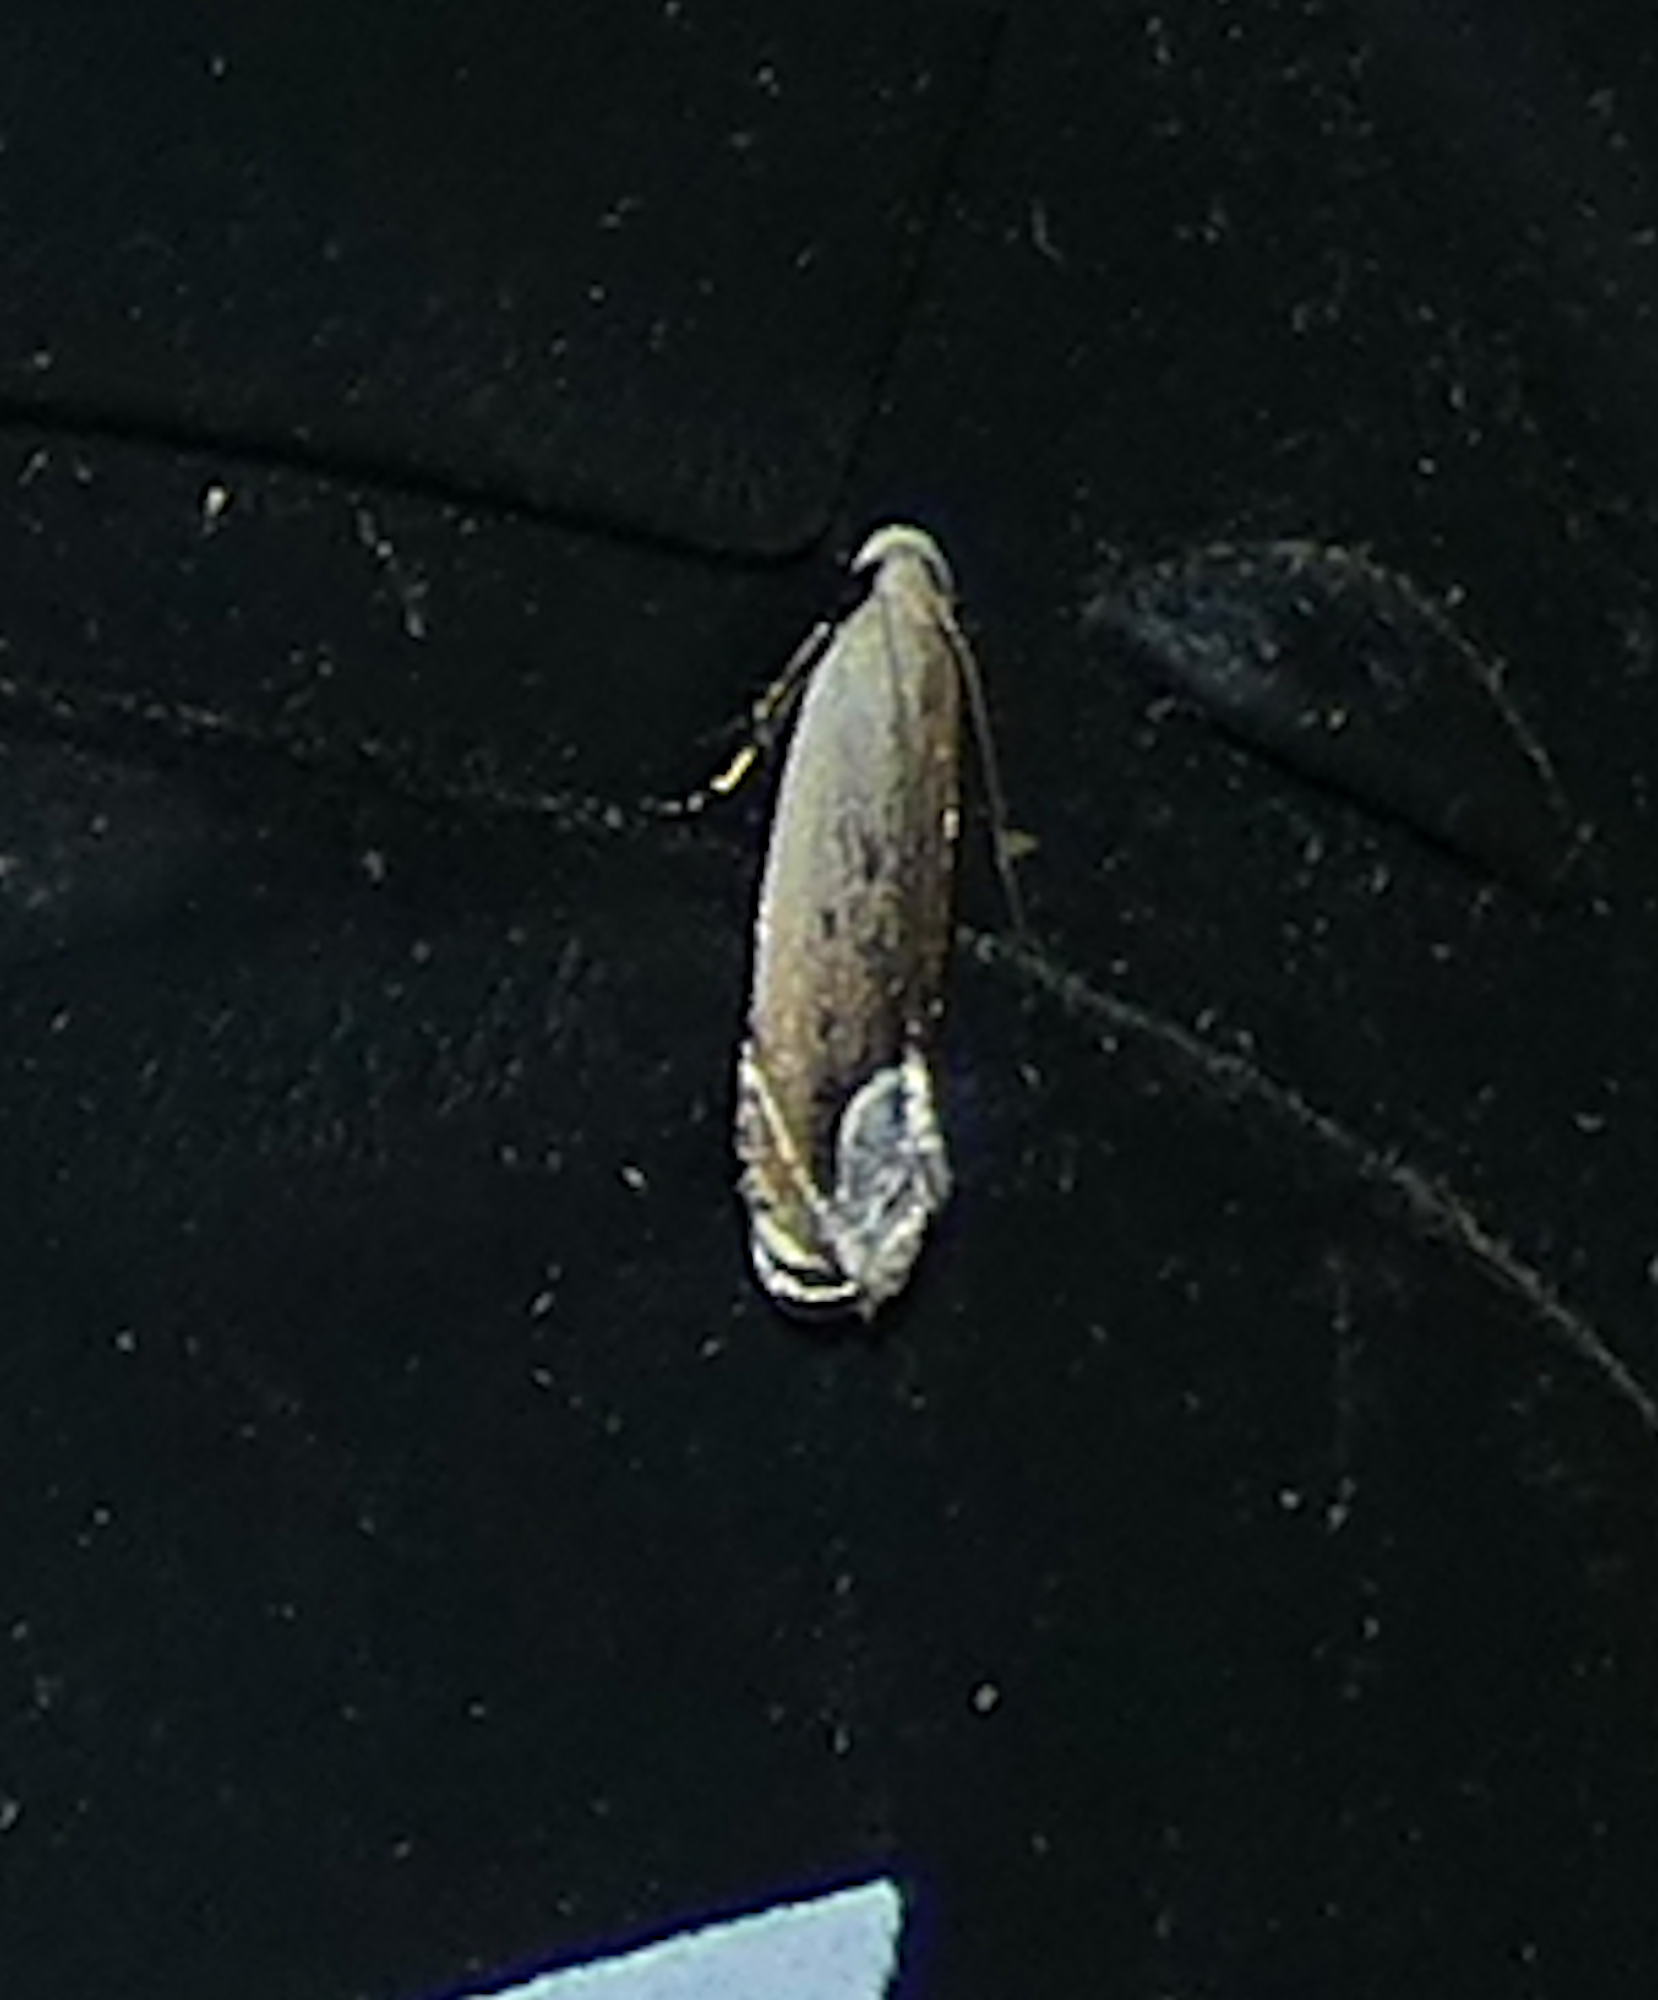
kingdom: Animalia
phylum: Arthropoda
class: Insecta
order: Lepidoptera
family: Gelechiidae
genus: Anacampsis
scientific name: Anacampsis paltodoriella
